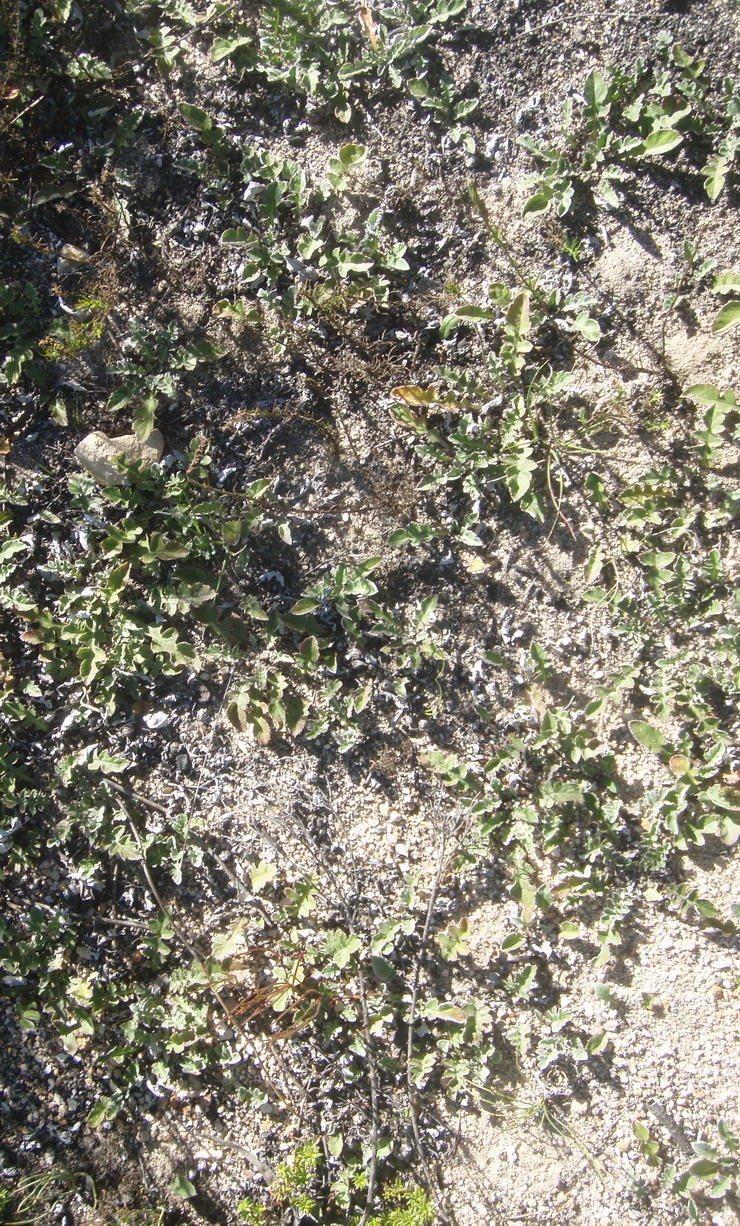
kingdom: Plantae
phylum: Tracheophyta
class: Magnoliopsida
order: Asterales
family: Asteraceae
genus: Arctotheca
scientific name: Arctotheca prostrata
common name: Capeweed
